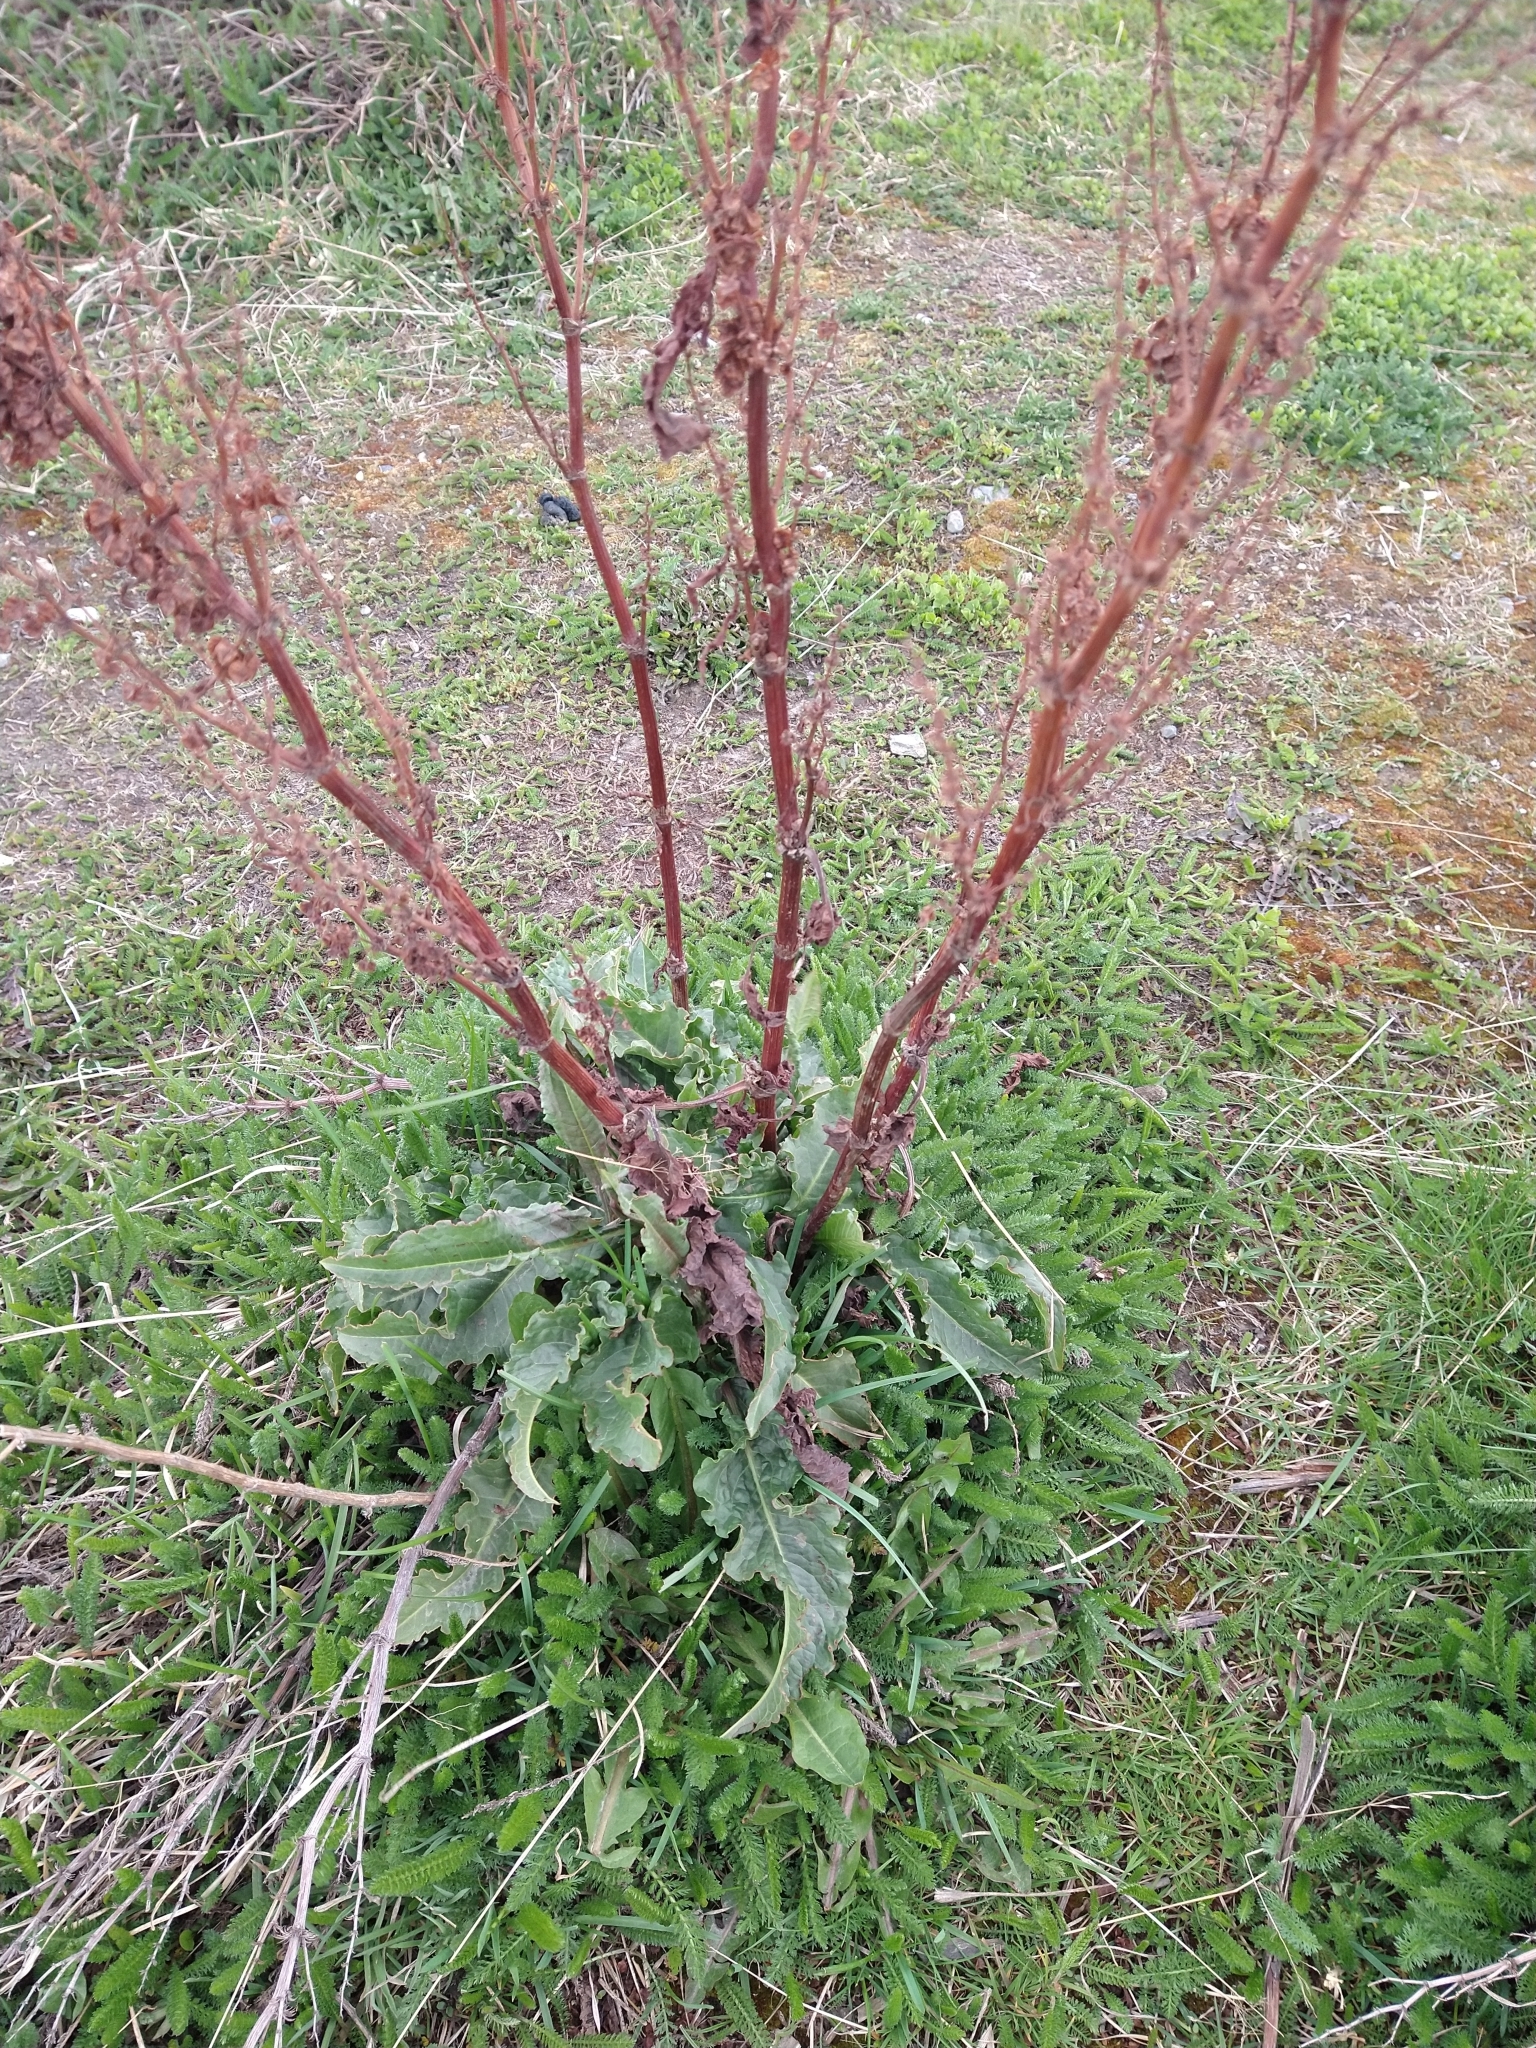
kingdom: Plantae
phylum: Tracheophyta
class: Magnoliopsida
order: Caryophyllales
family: Polygonaceae
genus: Rumex
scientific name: Rumex crispus
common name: Curled dock
